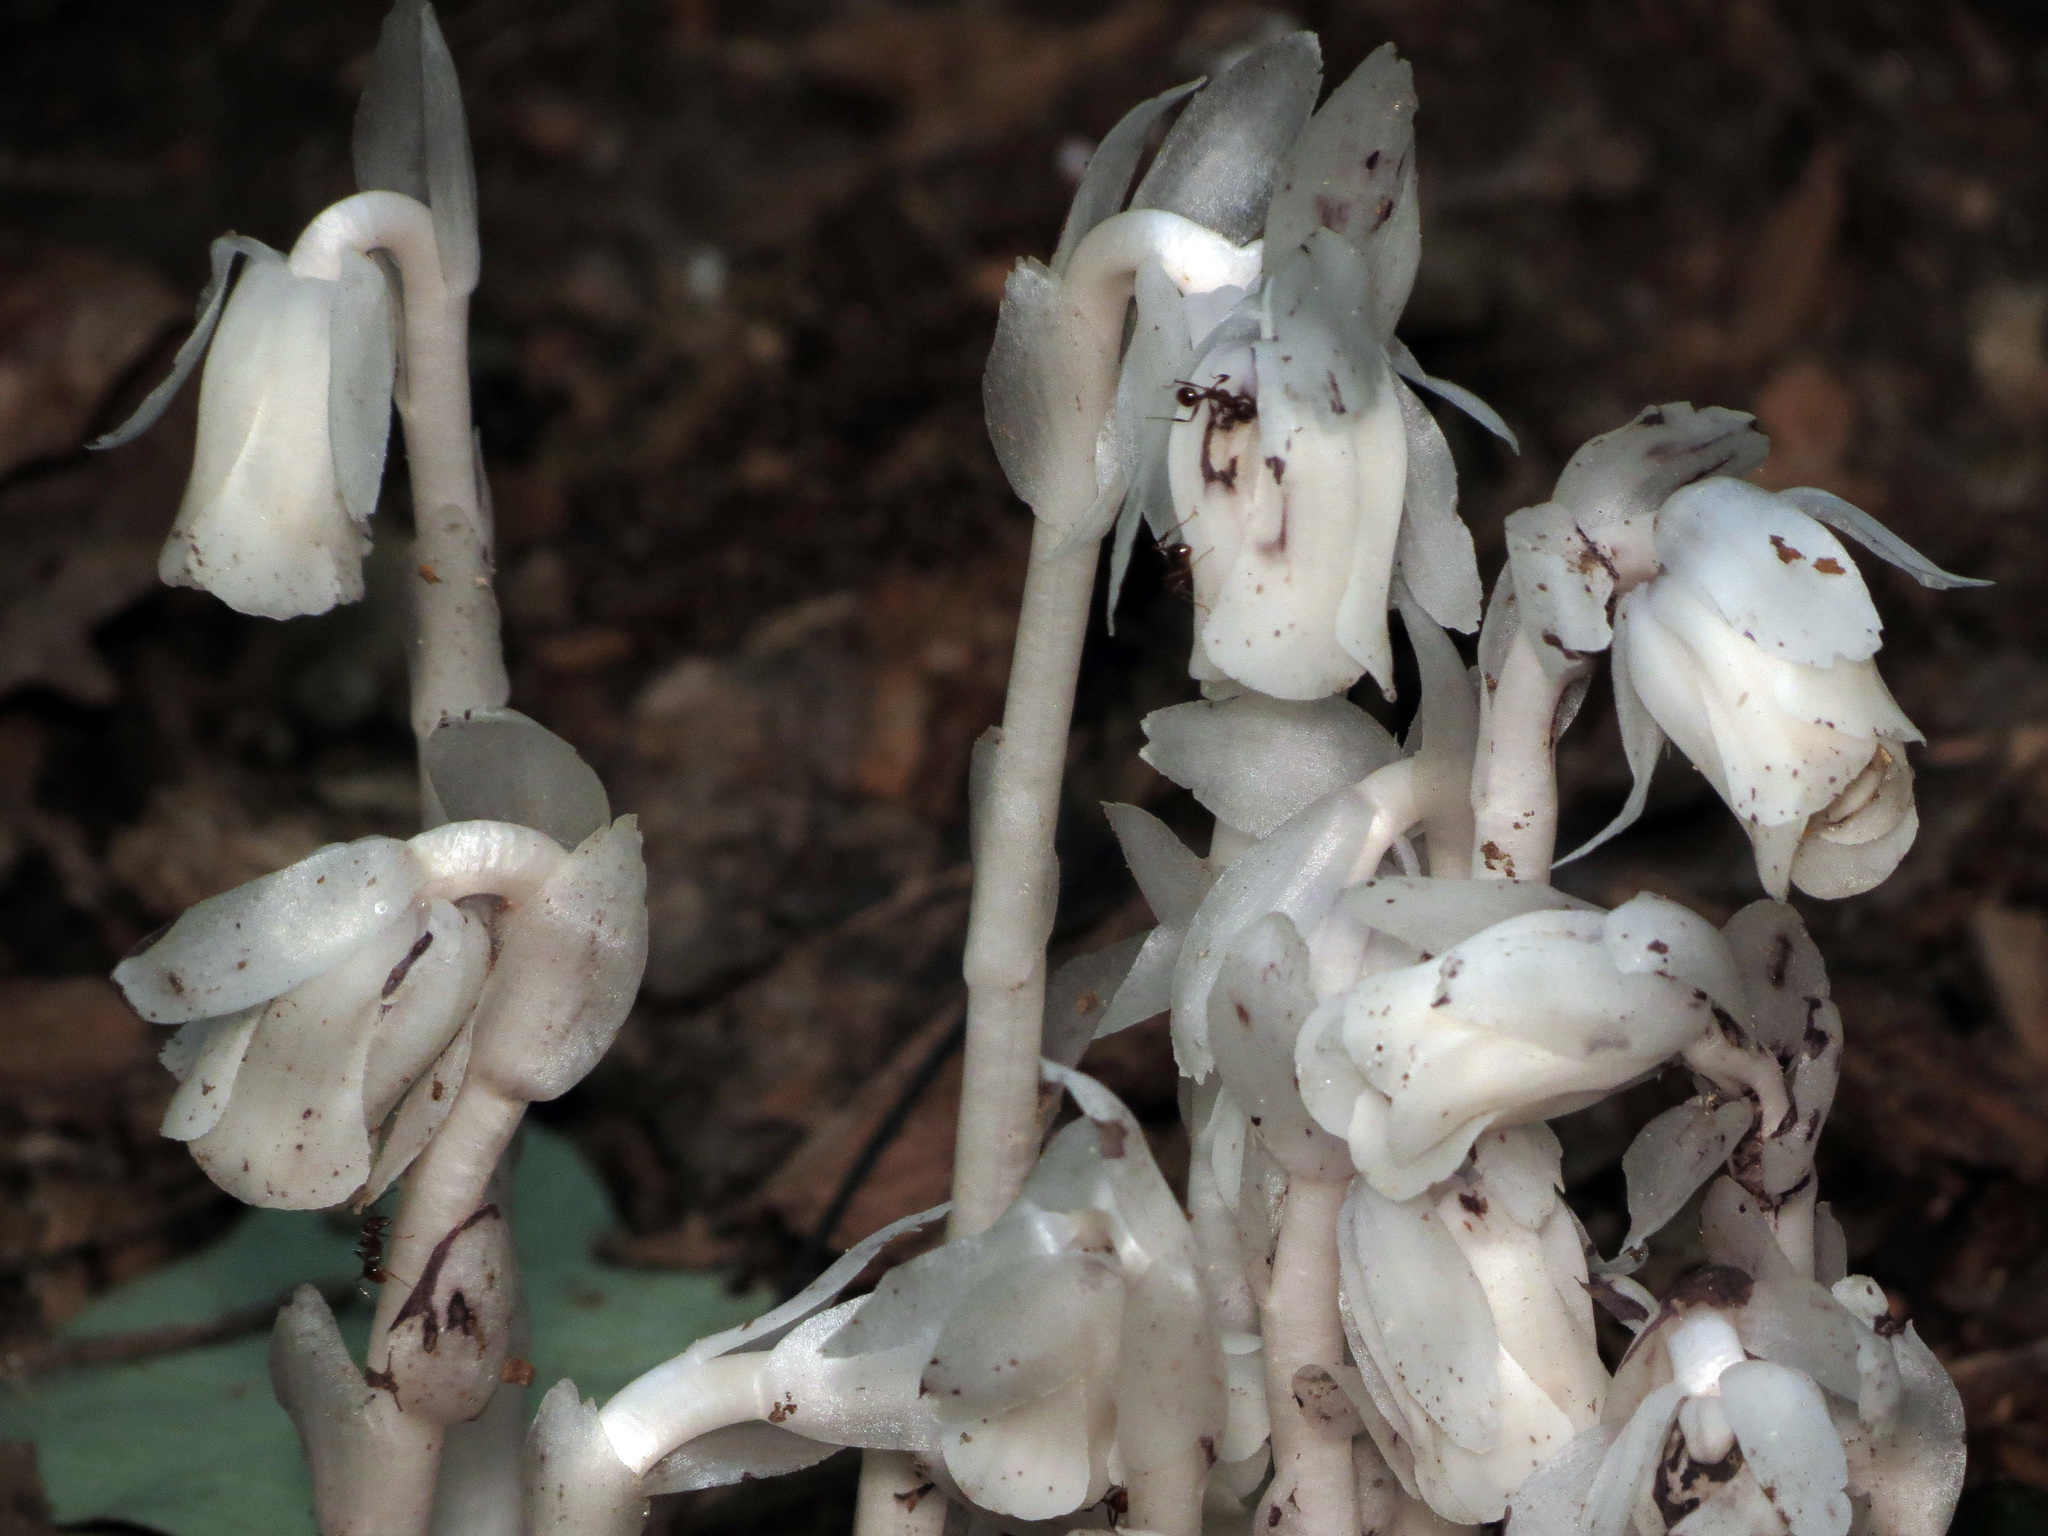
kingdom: Plantae
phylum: Tracheophyta
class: Magnoliopsida
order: Ericales
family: Ericaceae
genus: Monotropa
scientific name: Monotropa uniflora
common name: Convulsion root
